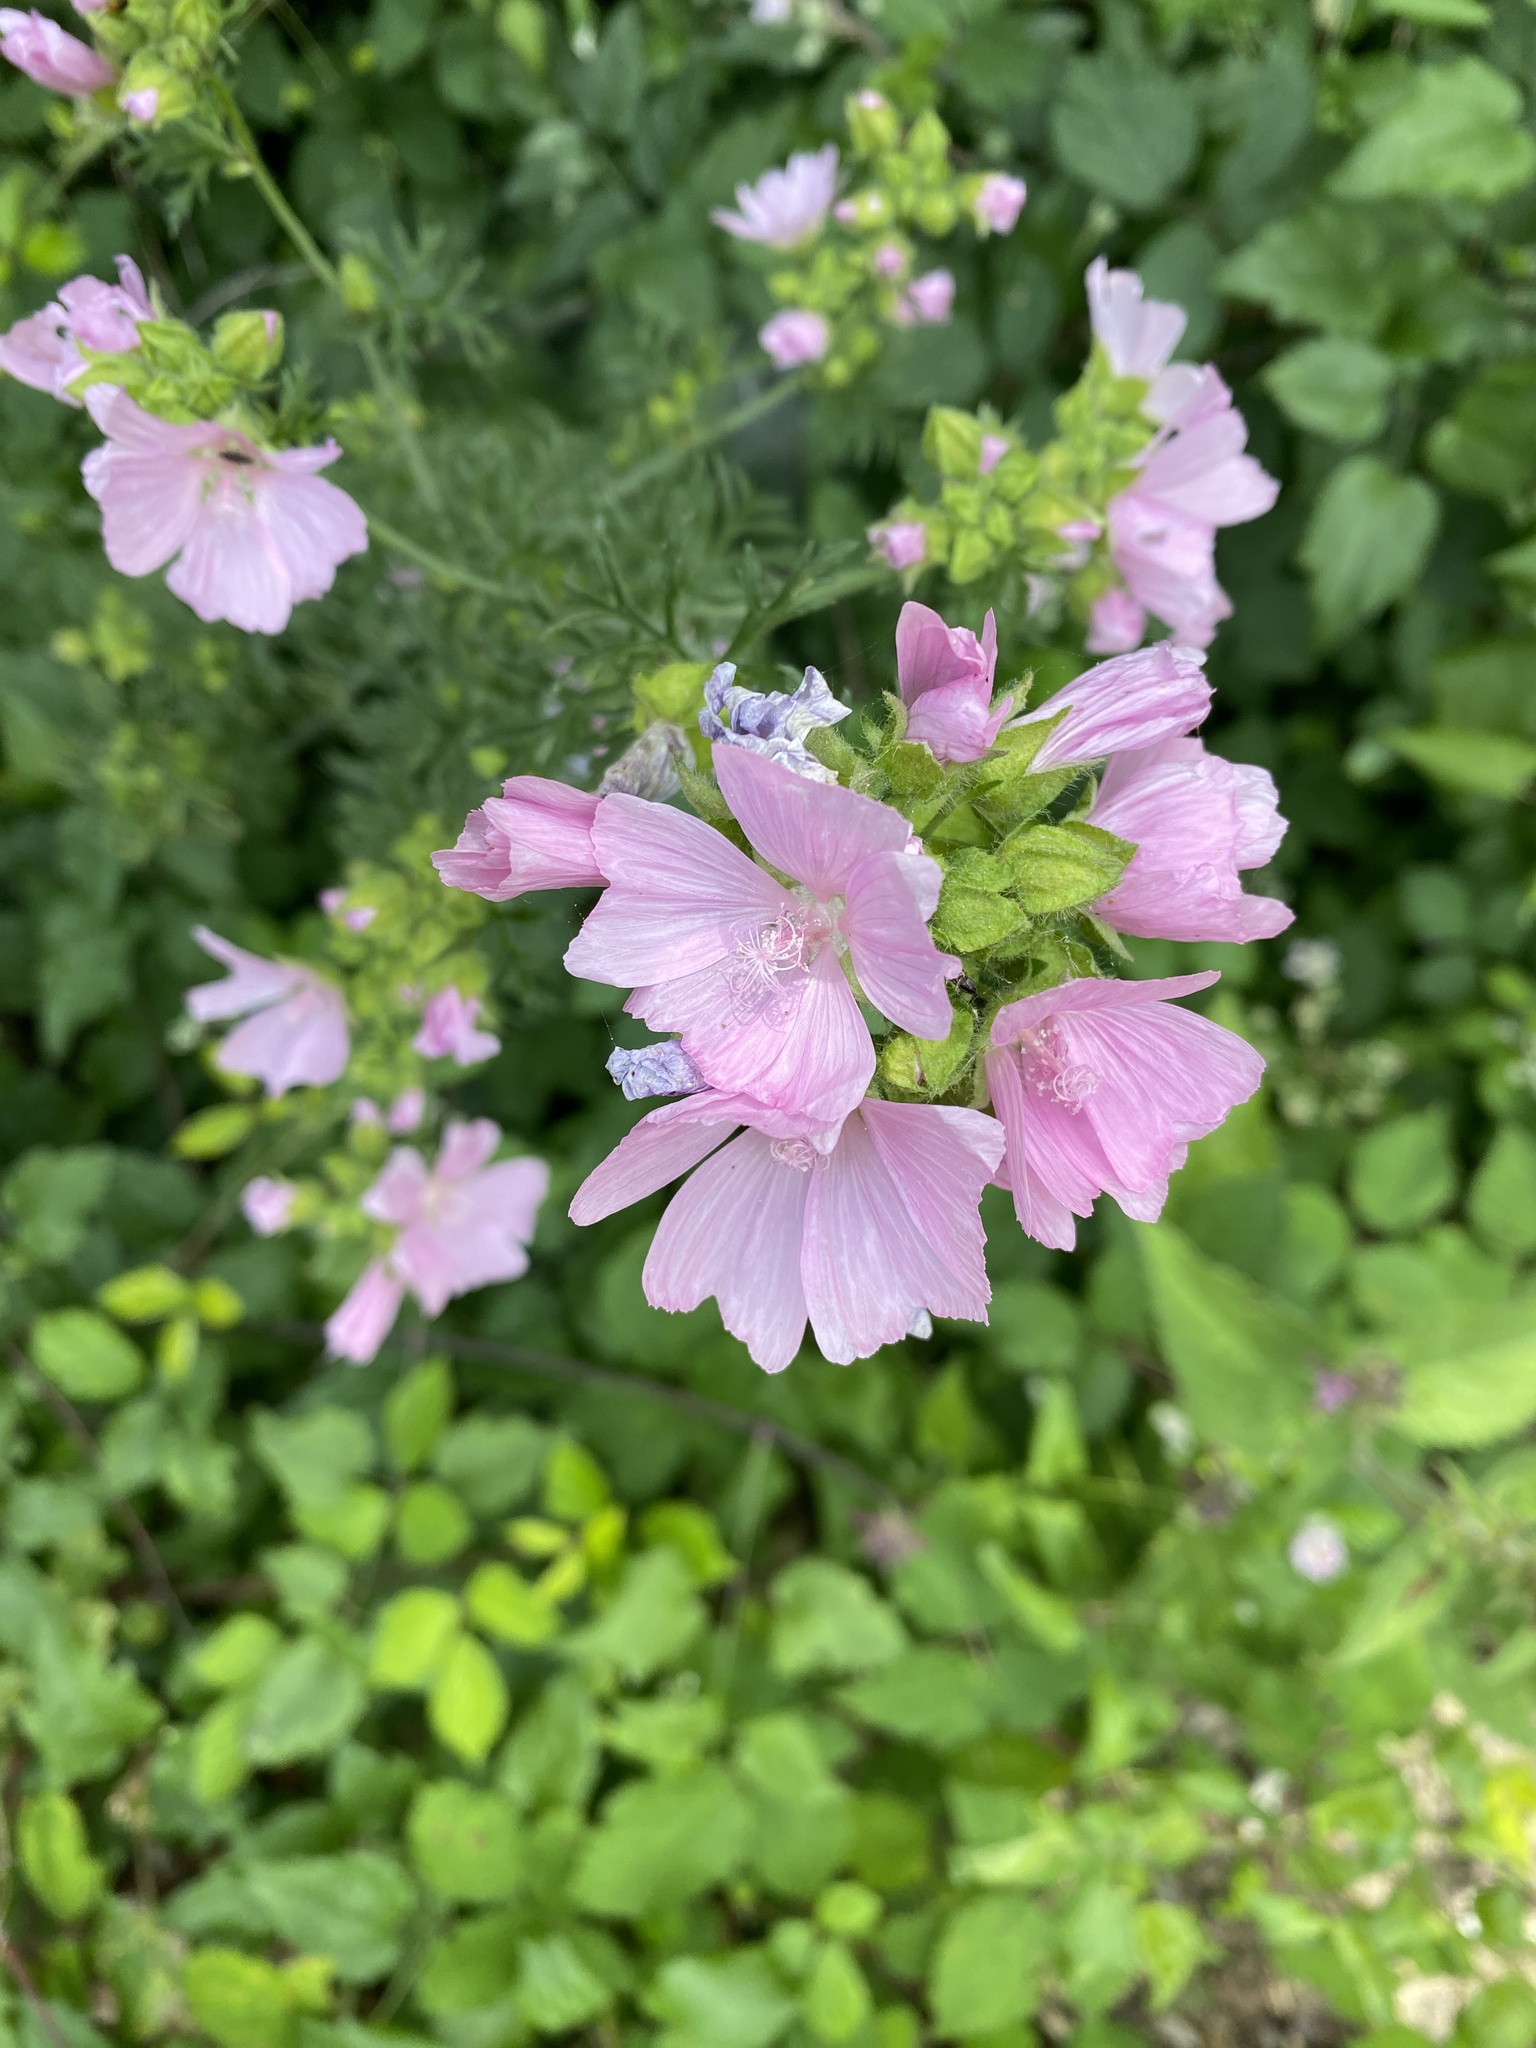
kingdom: Plantae
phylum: Tracheophyta
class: Magnoliopsida
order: Malvales
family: Malvaceae
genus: Malva
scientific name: Malva moschata
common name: Musk mallow
